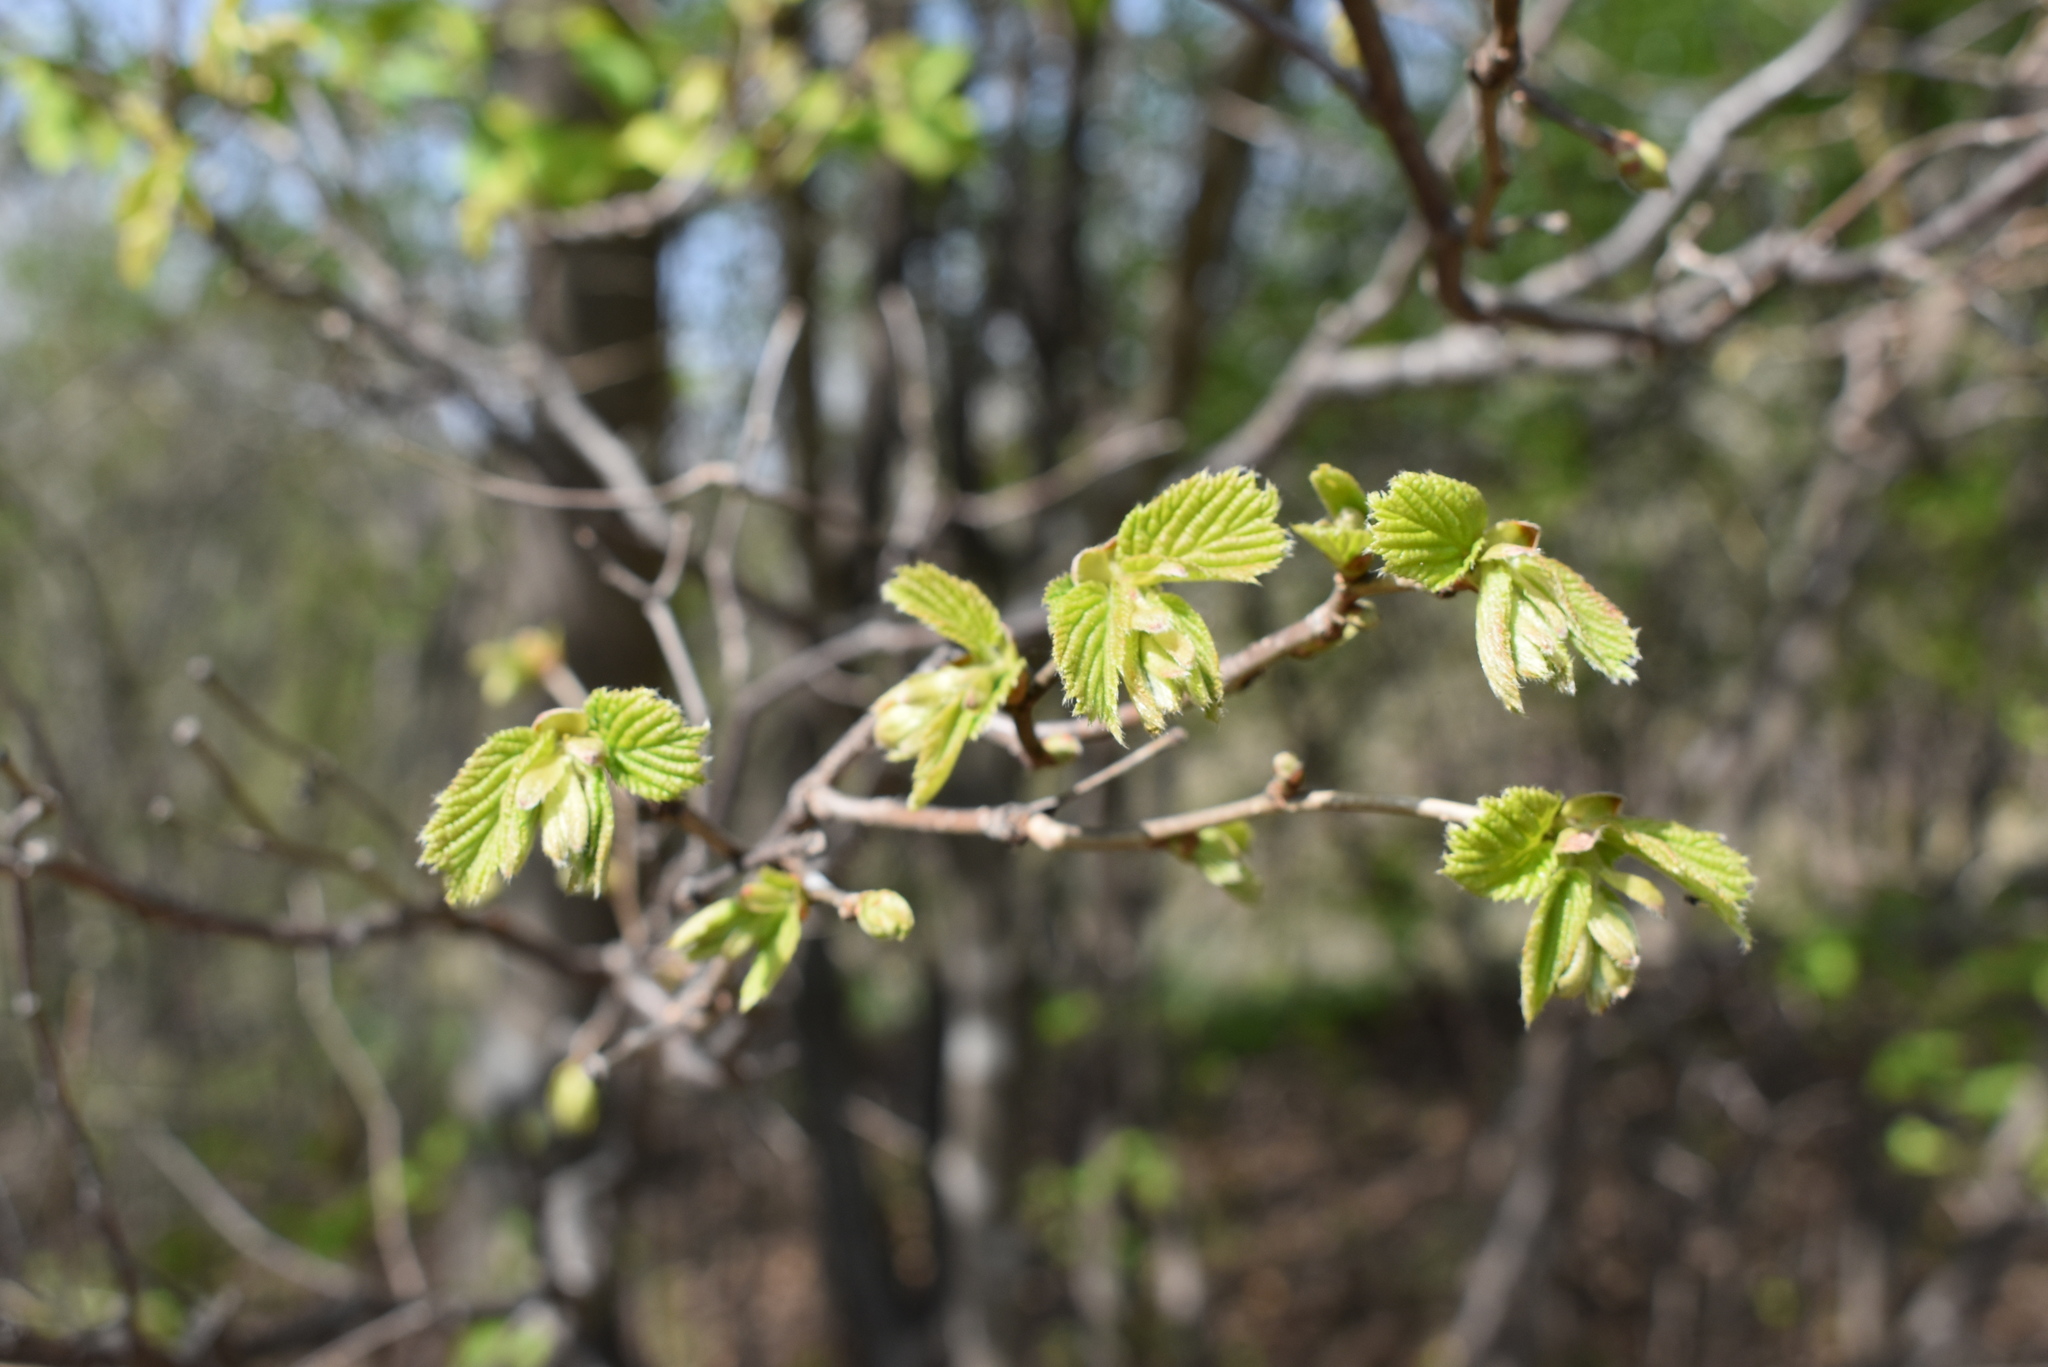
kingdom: Plantae
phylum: Tracheophyta
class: Magnoliopsida
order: Fagales
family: Betulaceae
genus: Corylus
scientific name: Corylus heterophylla
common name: Siberian hazelnut
